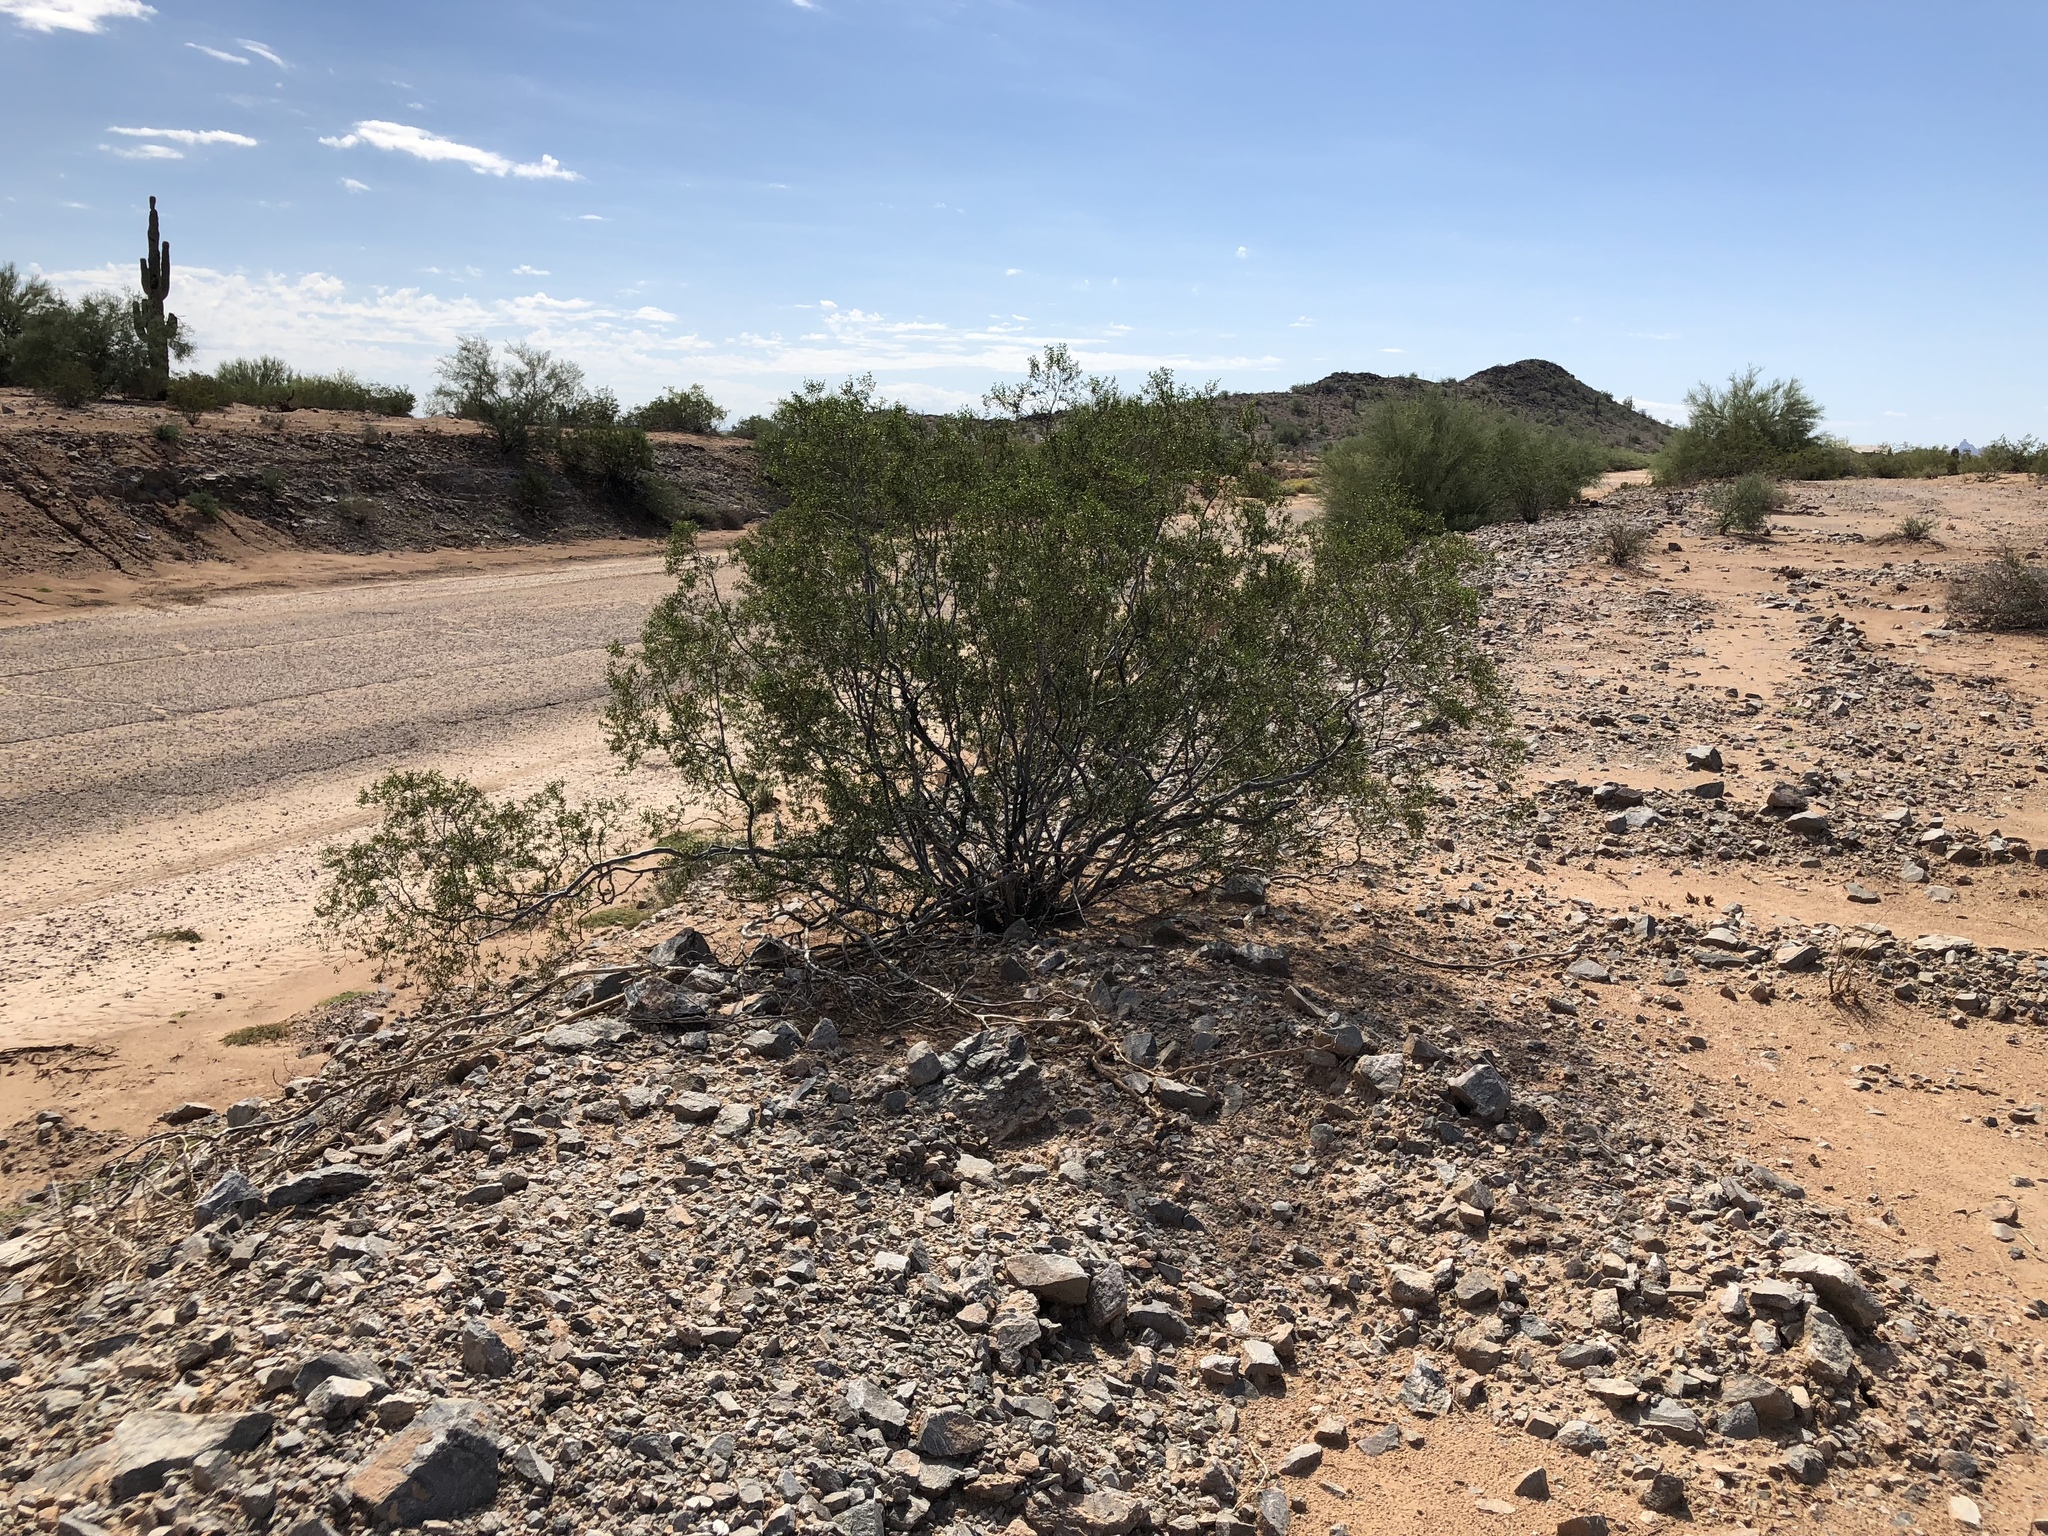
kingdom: Plantae
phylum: Tracheophyta
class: Magnoliopsida
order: Zygophyllales
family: Zygophyllaceae
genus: Larrea
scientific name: Larrea tridentata
